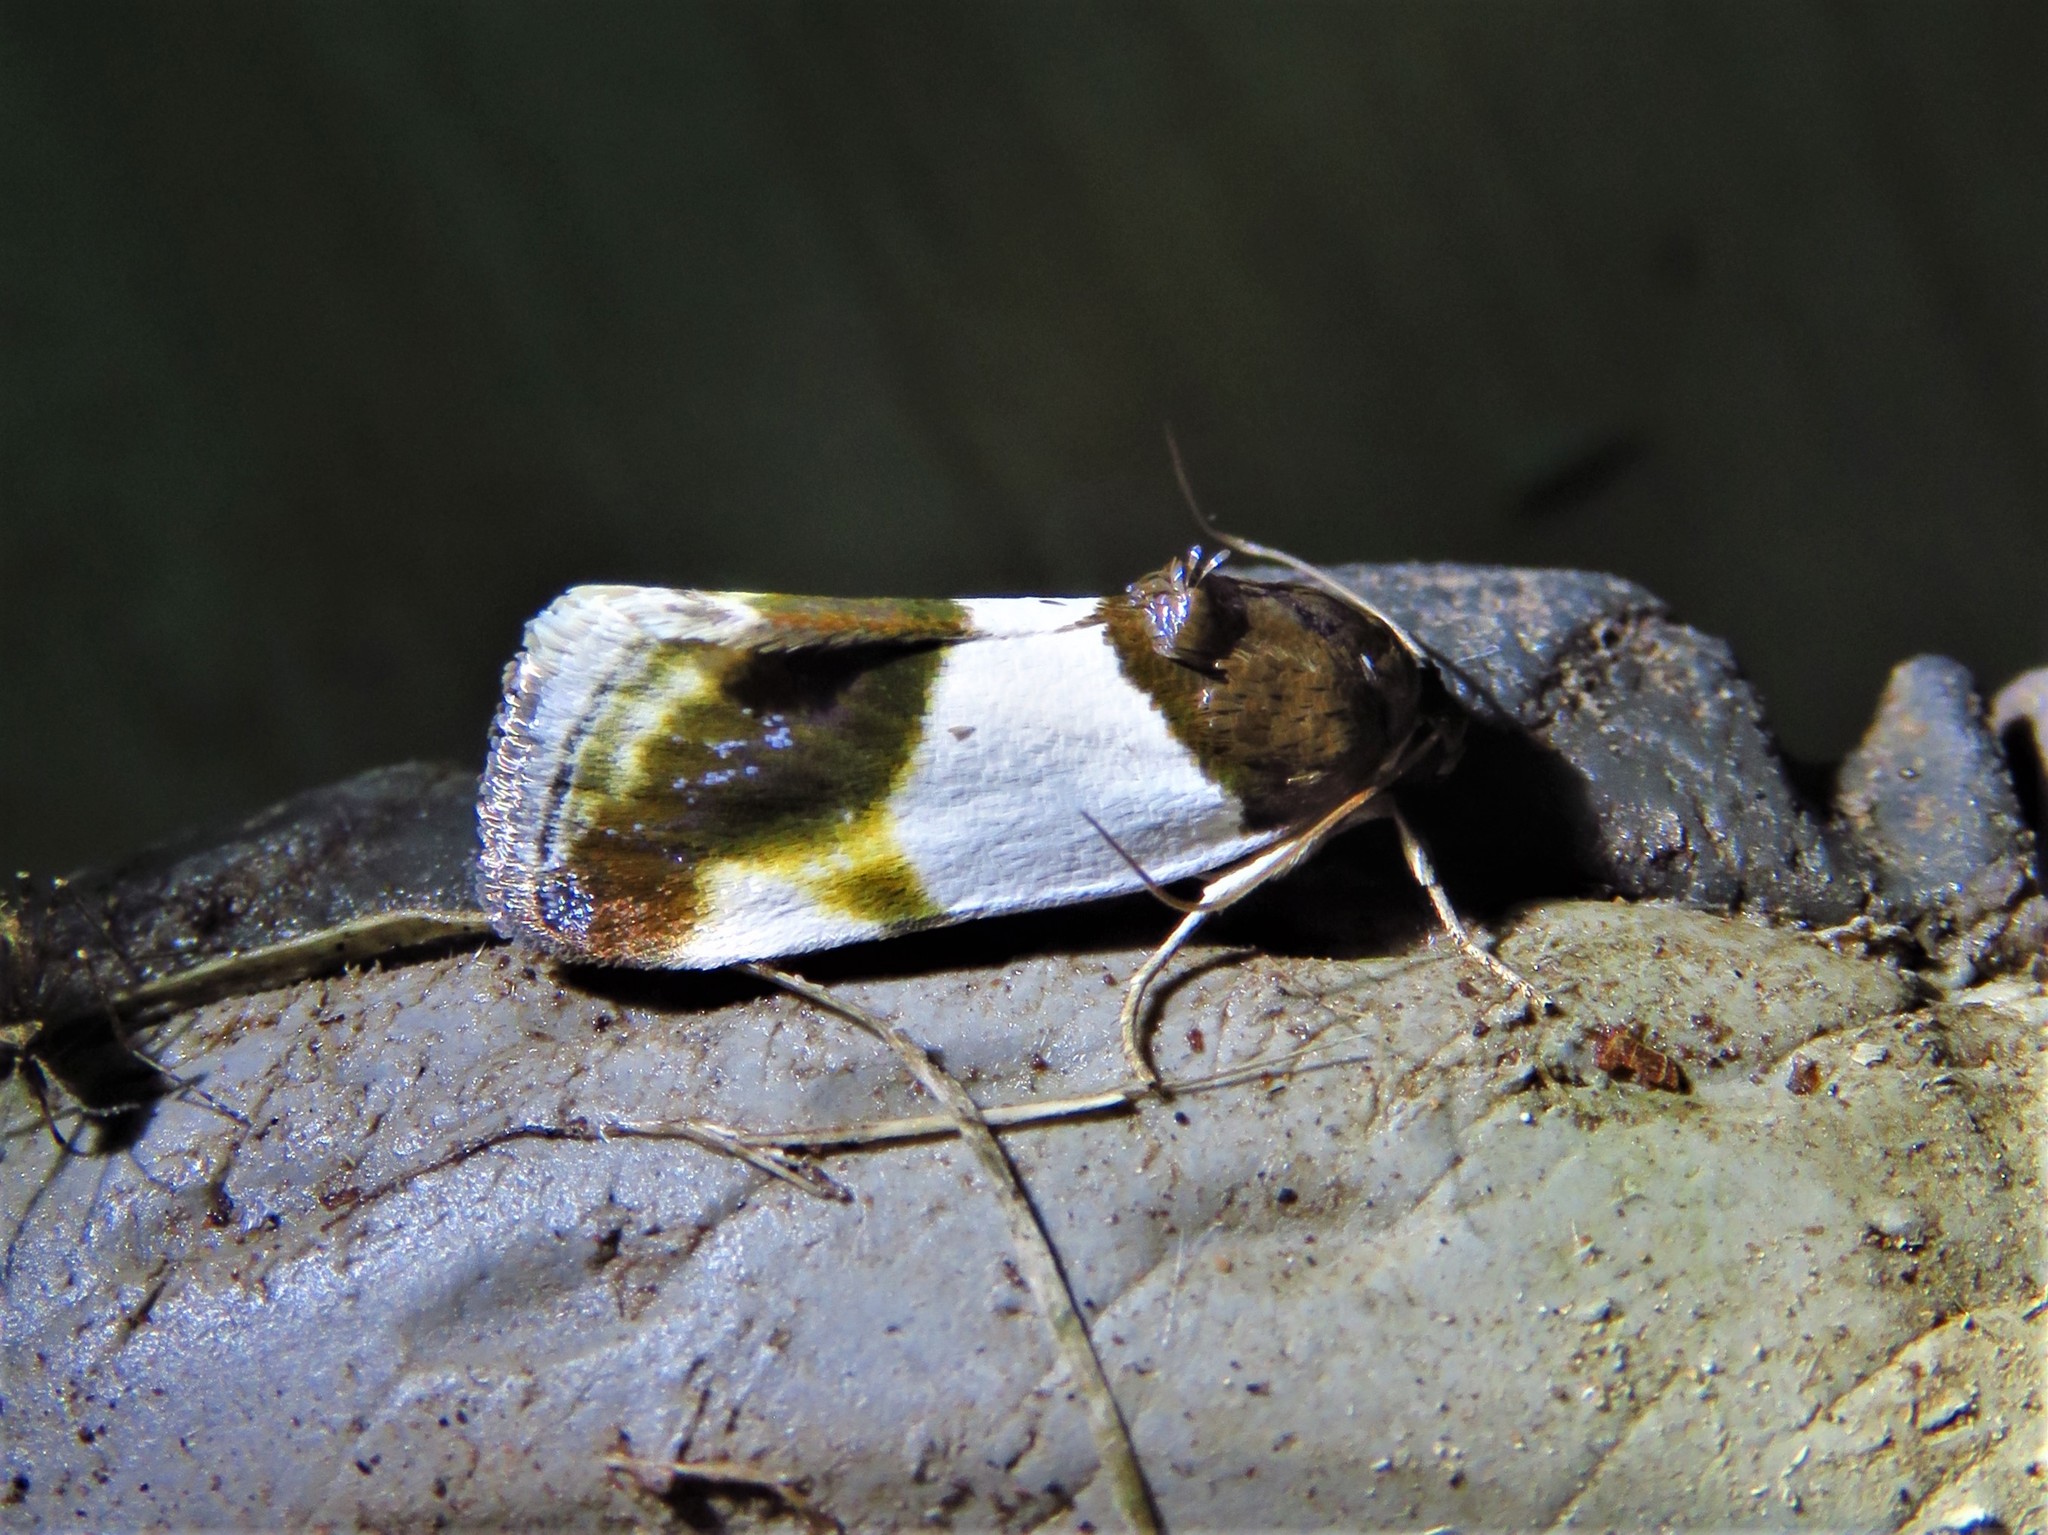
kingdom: Animalia
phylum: Arthropoda
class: Insecta
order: Lepidoptera
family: Noctuidae
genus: Acontia
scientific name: Acontia Tarache lactipennis
